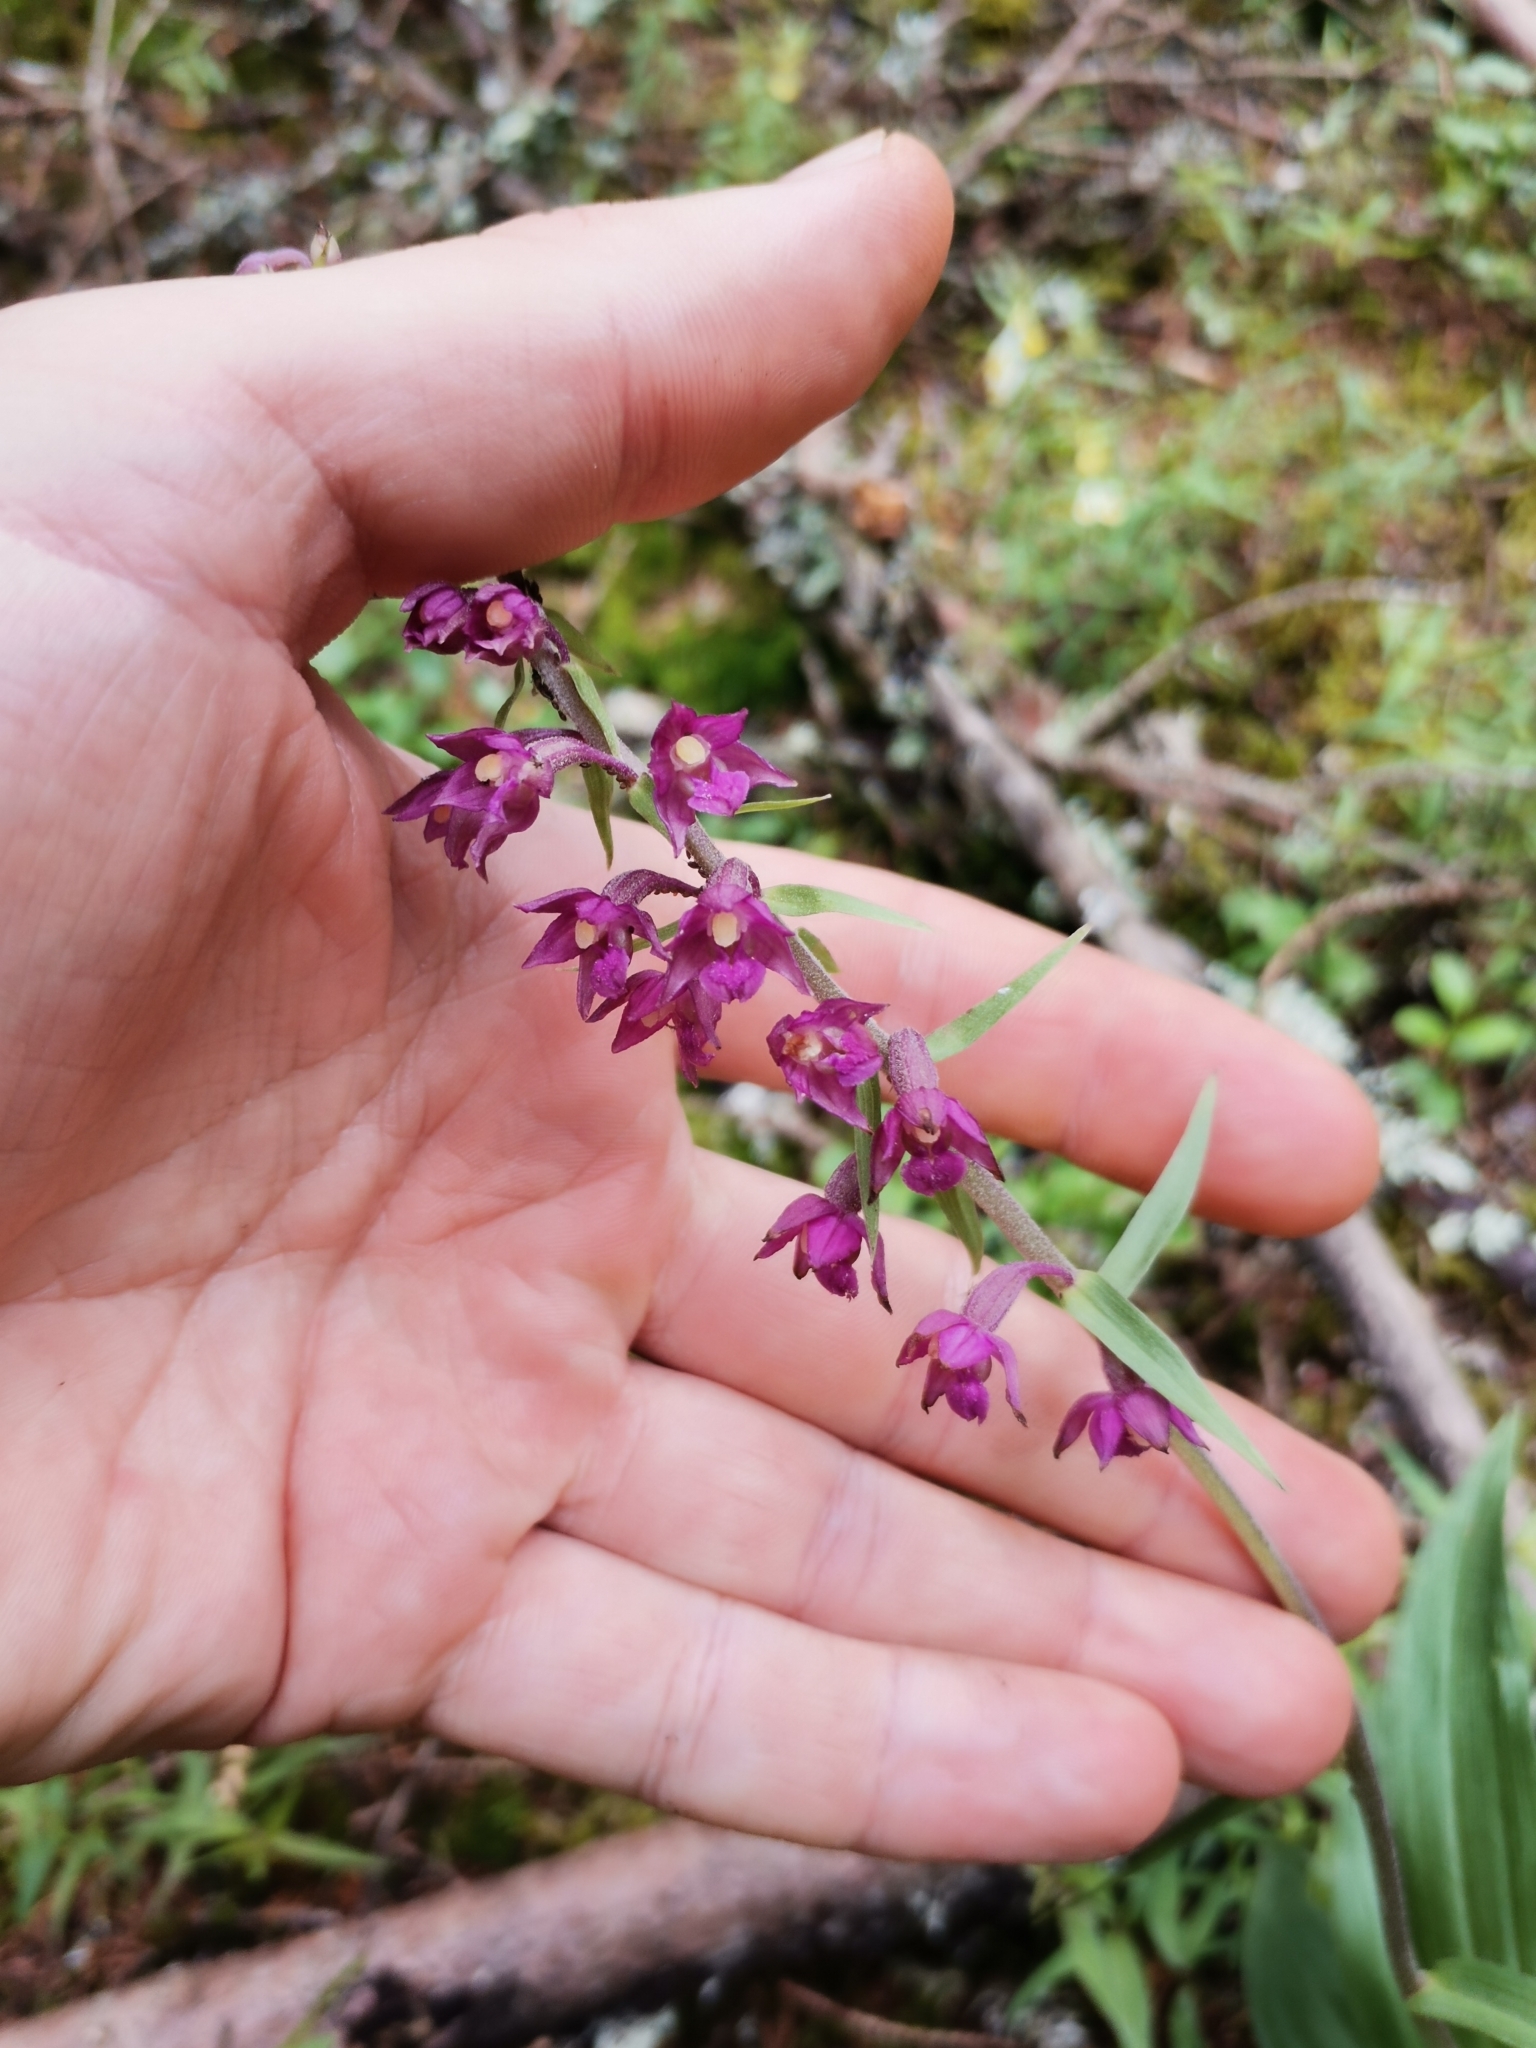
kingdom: Plantae
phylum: Tracheophyta
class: Liliopsida
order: Asparagales
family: Orchidaceae
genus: Epipactis
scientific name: Epipactis atrorubens
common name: Dark-red helleborine
